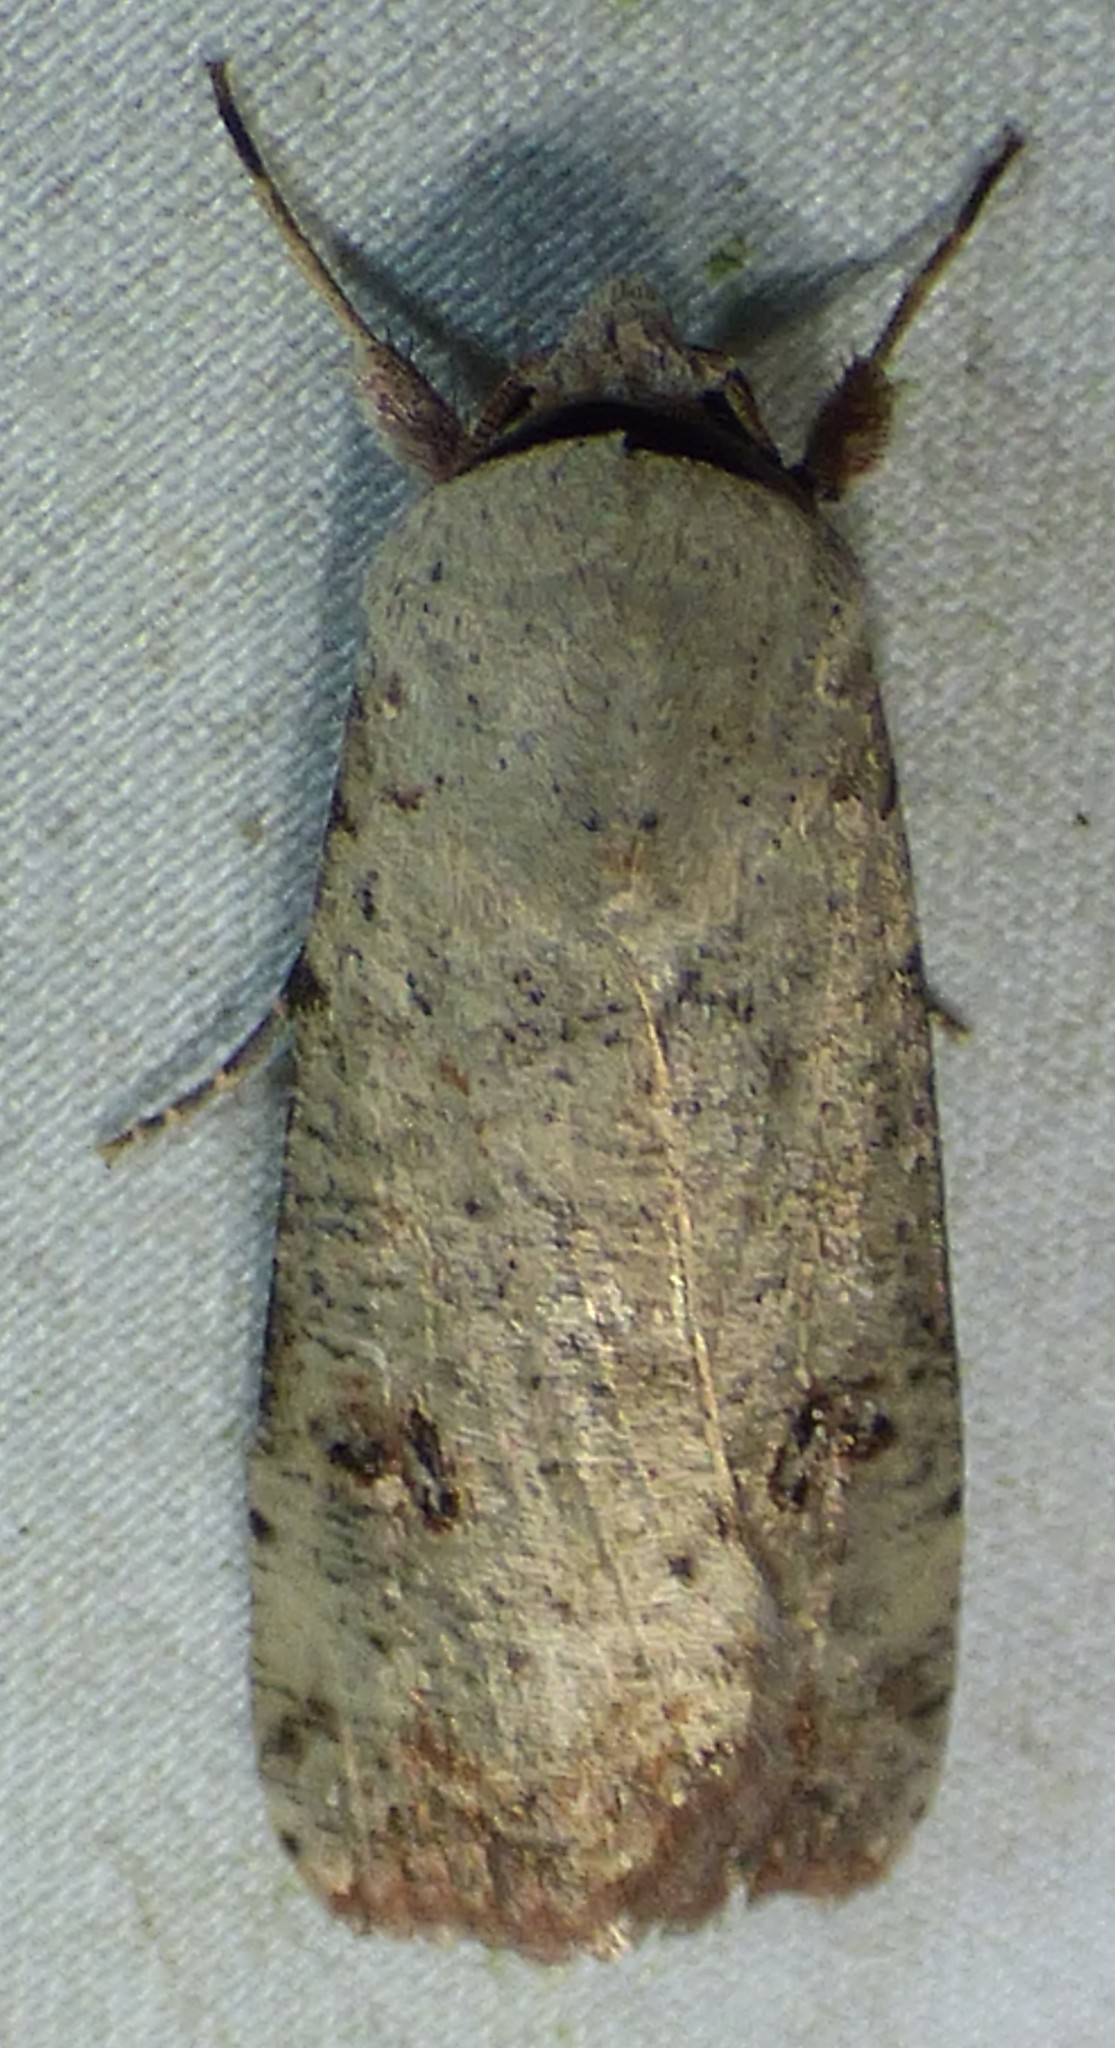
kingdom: Animalia
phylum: Arthropoda
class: Insecta
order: Lepidoptera
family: Noctuidae
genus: Anicla
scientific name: Anicla infecta
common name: Green cutworm
